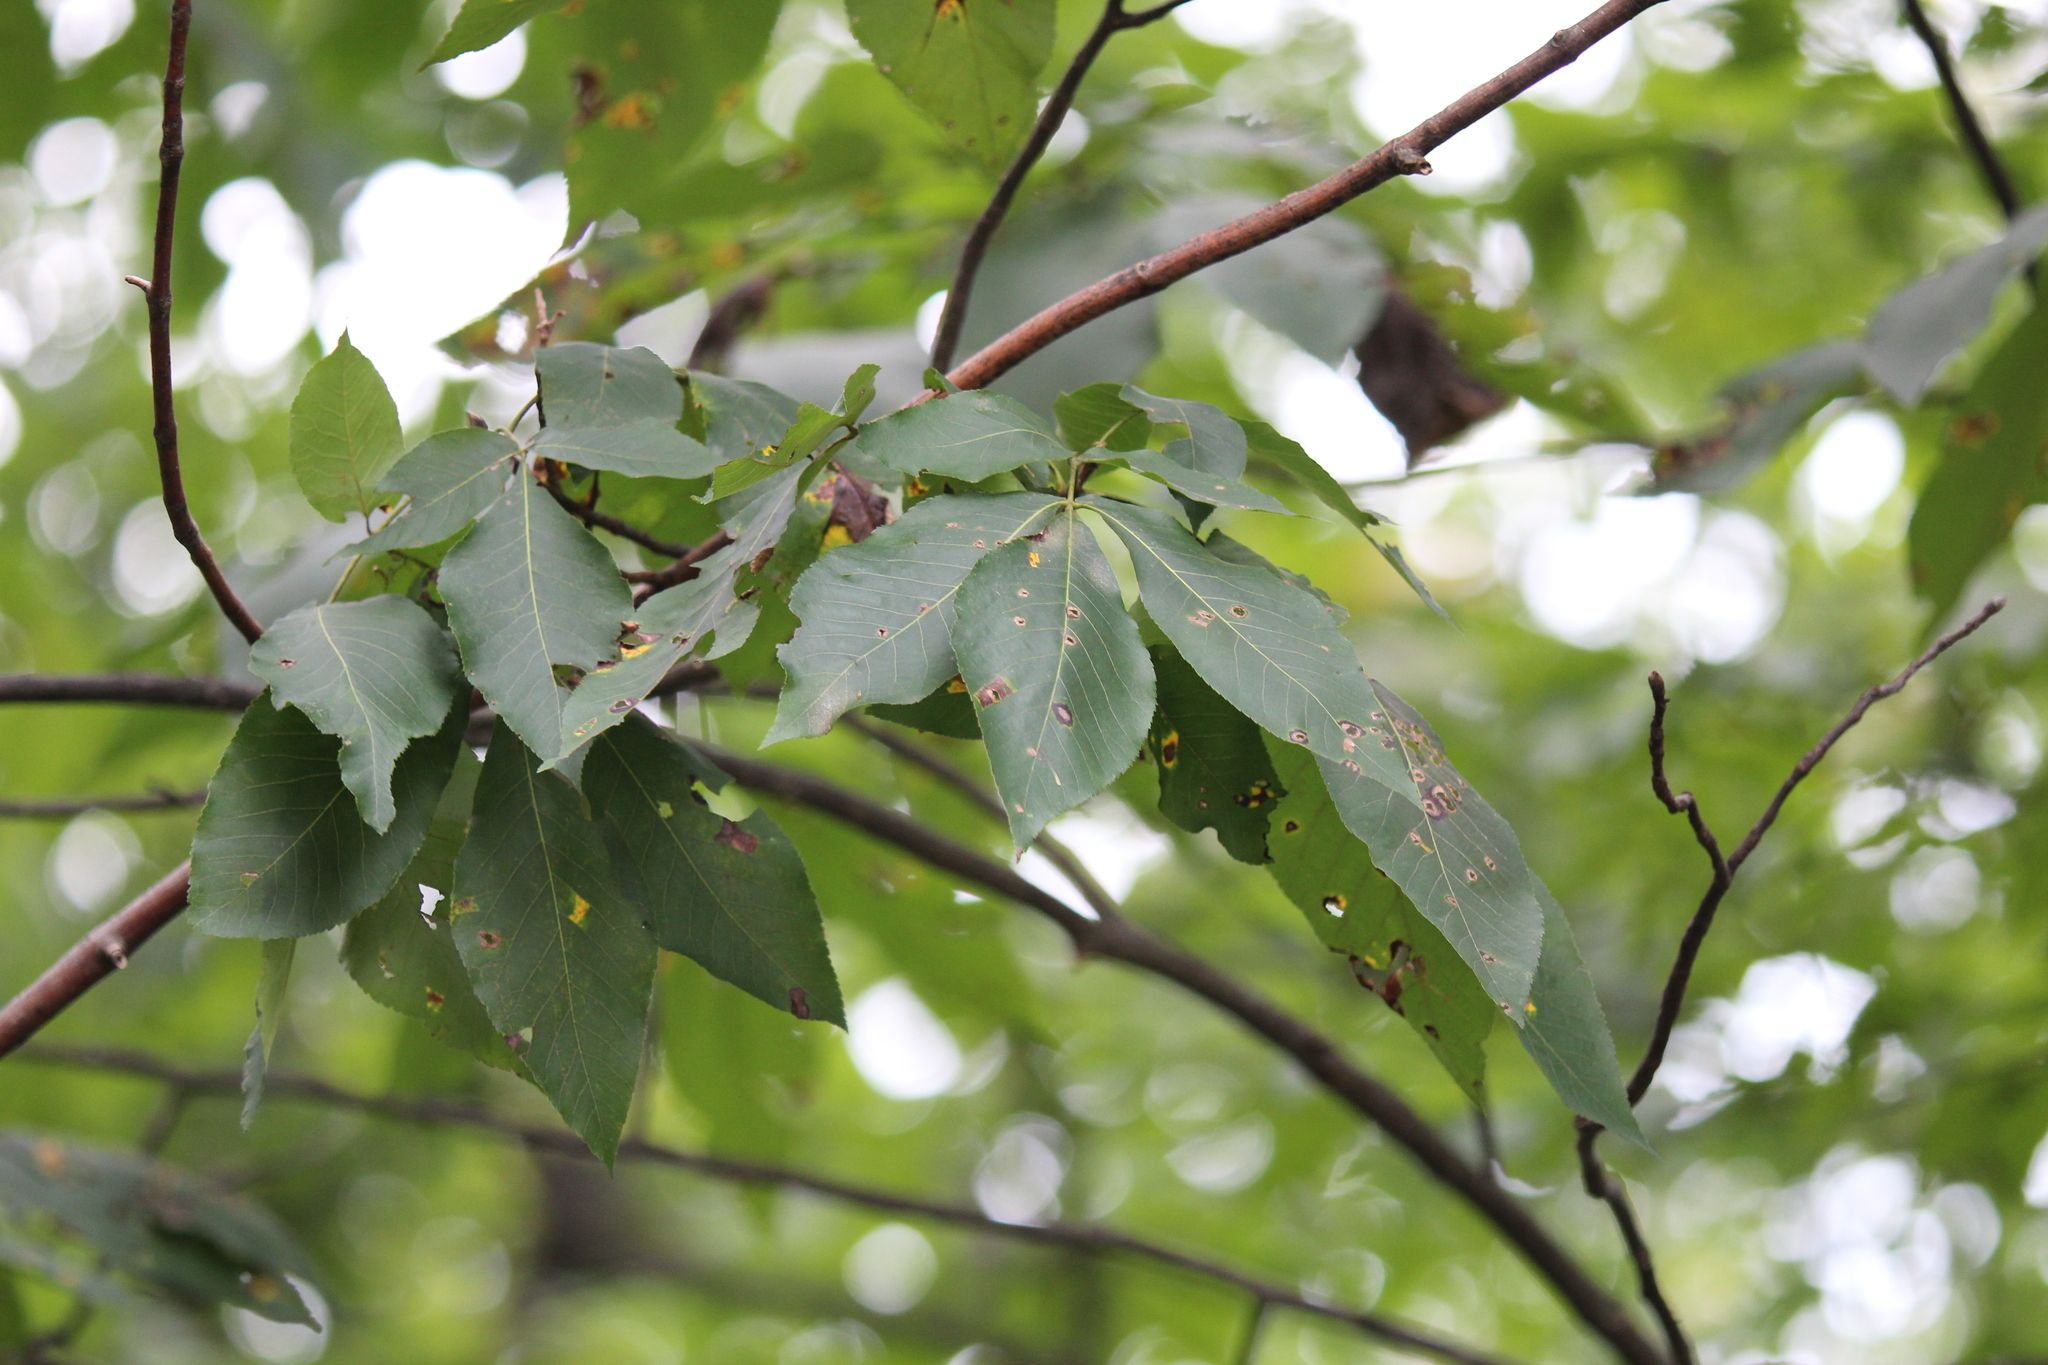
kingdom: Plantae
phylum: Tracheophyta
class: Magnoliopsida
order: Fagales
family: Juglandaceae
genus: Carya
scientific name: Carya ovata
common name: Shagbark hickory
